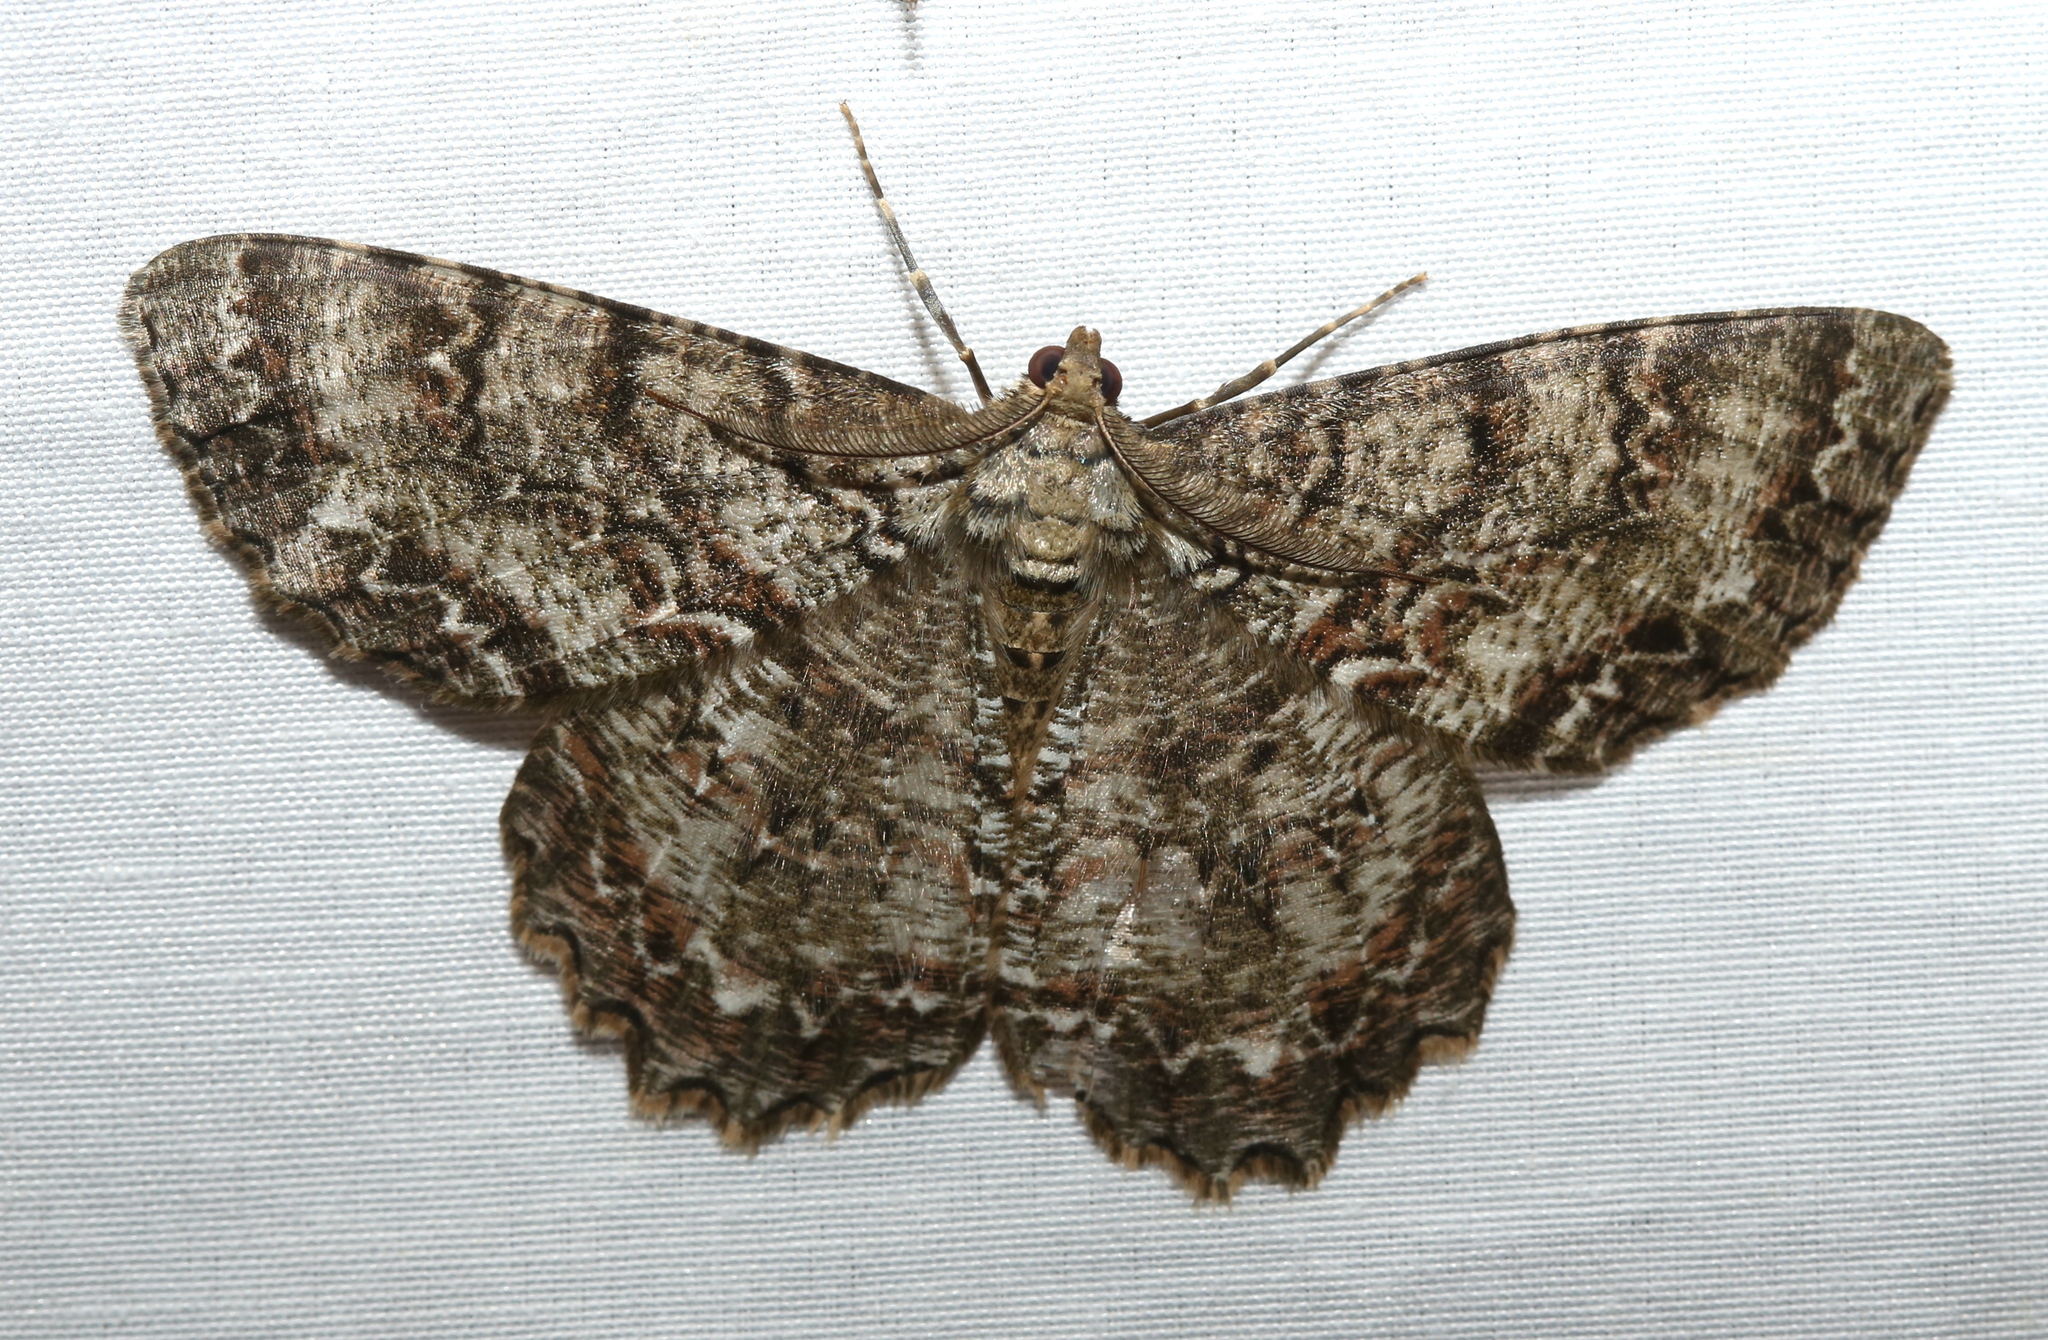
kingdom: Animalia
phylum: Arthropoda
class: Insecta
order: Lepidoptera
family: Geometridae
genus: Epimecis
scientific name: Epimecis hortaria
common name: Tulip-tree beauty
